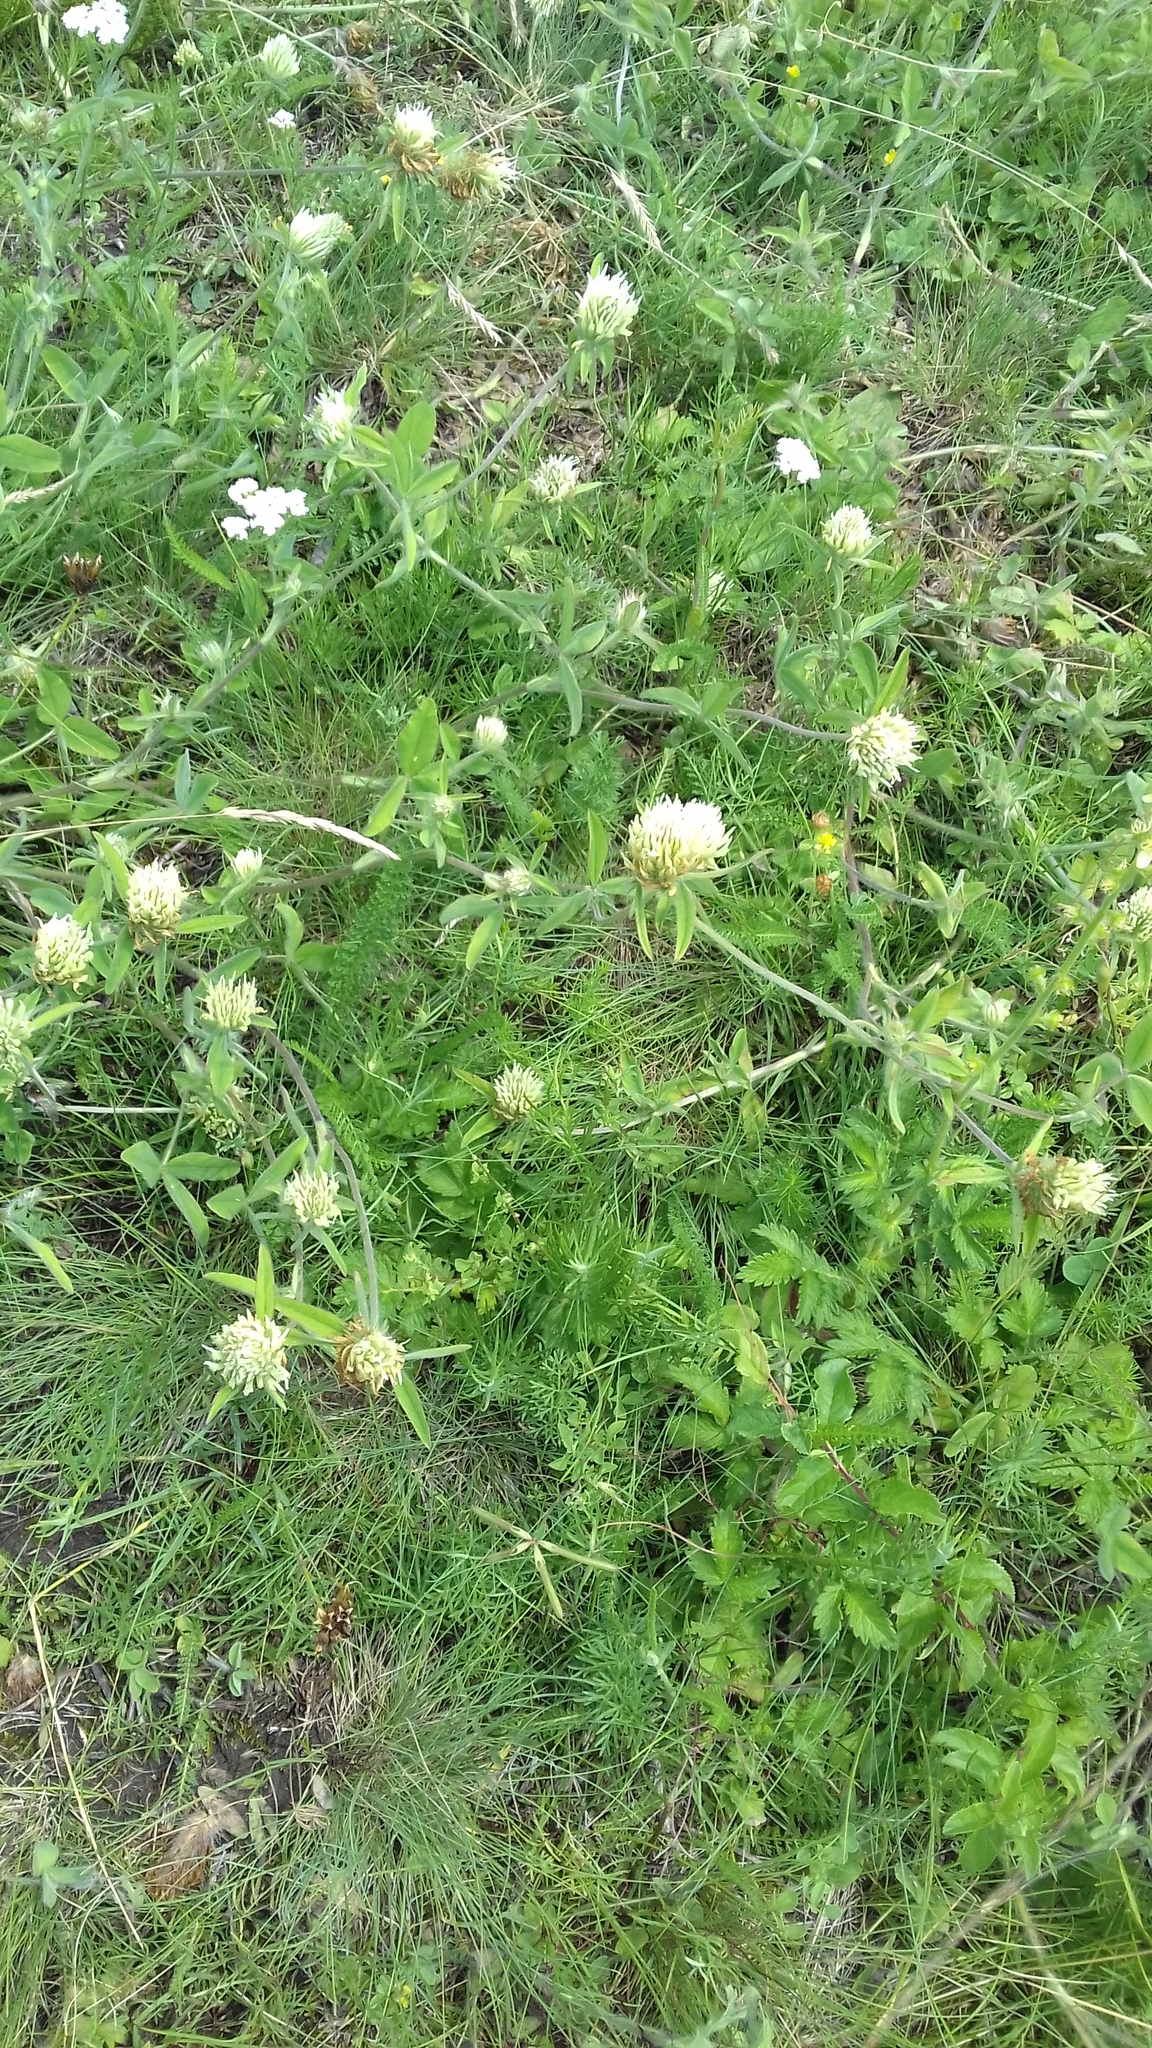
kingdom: Plantae
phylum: Tracheophyta
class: Magnoliopsida
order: Fabales
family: Fabaceae
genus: Trifolium
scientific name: Trifolium montanum
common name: Mountain clover
